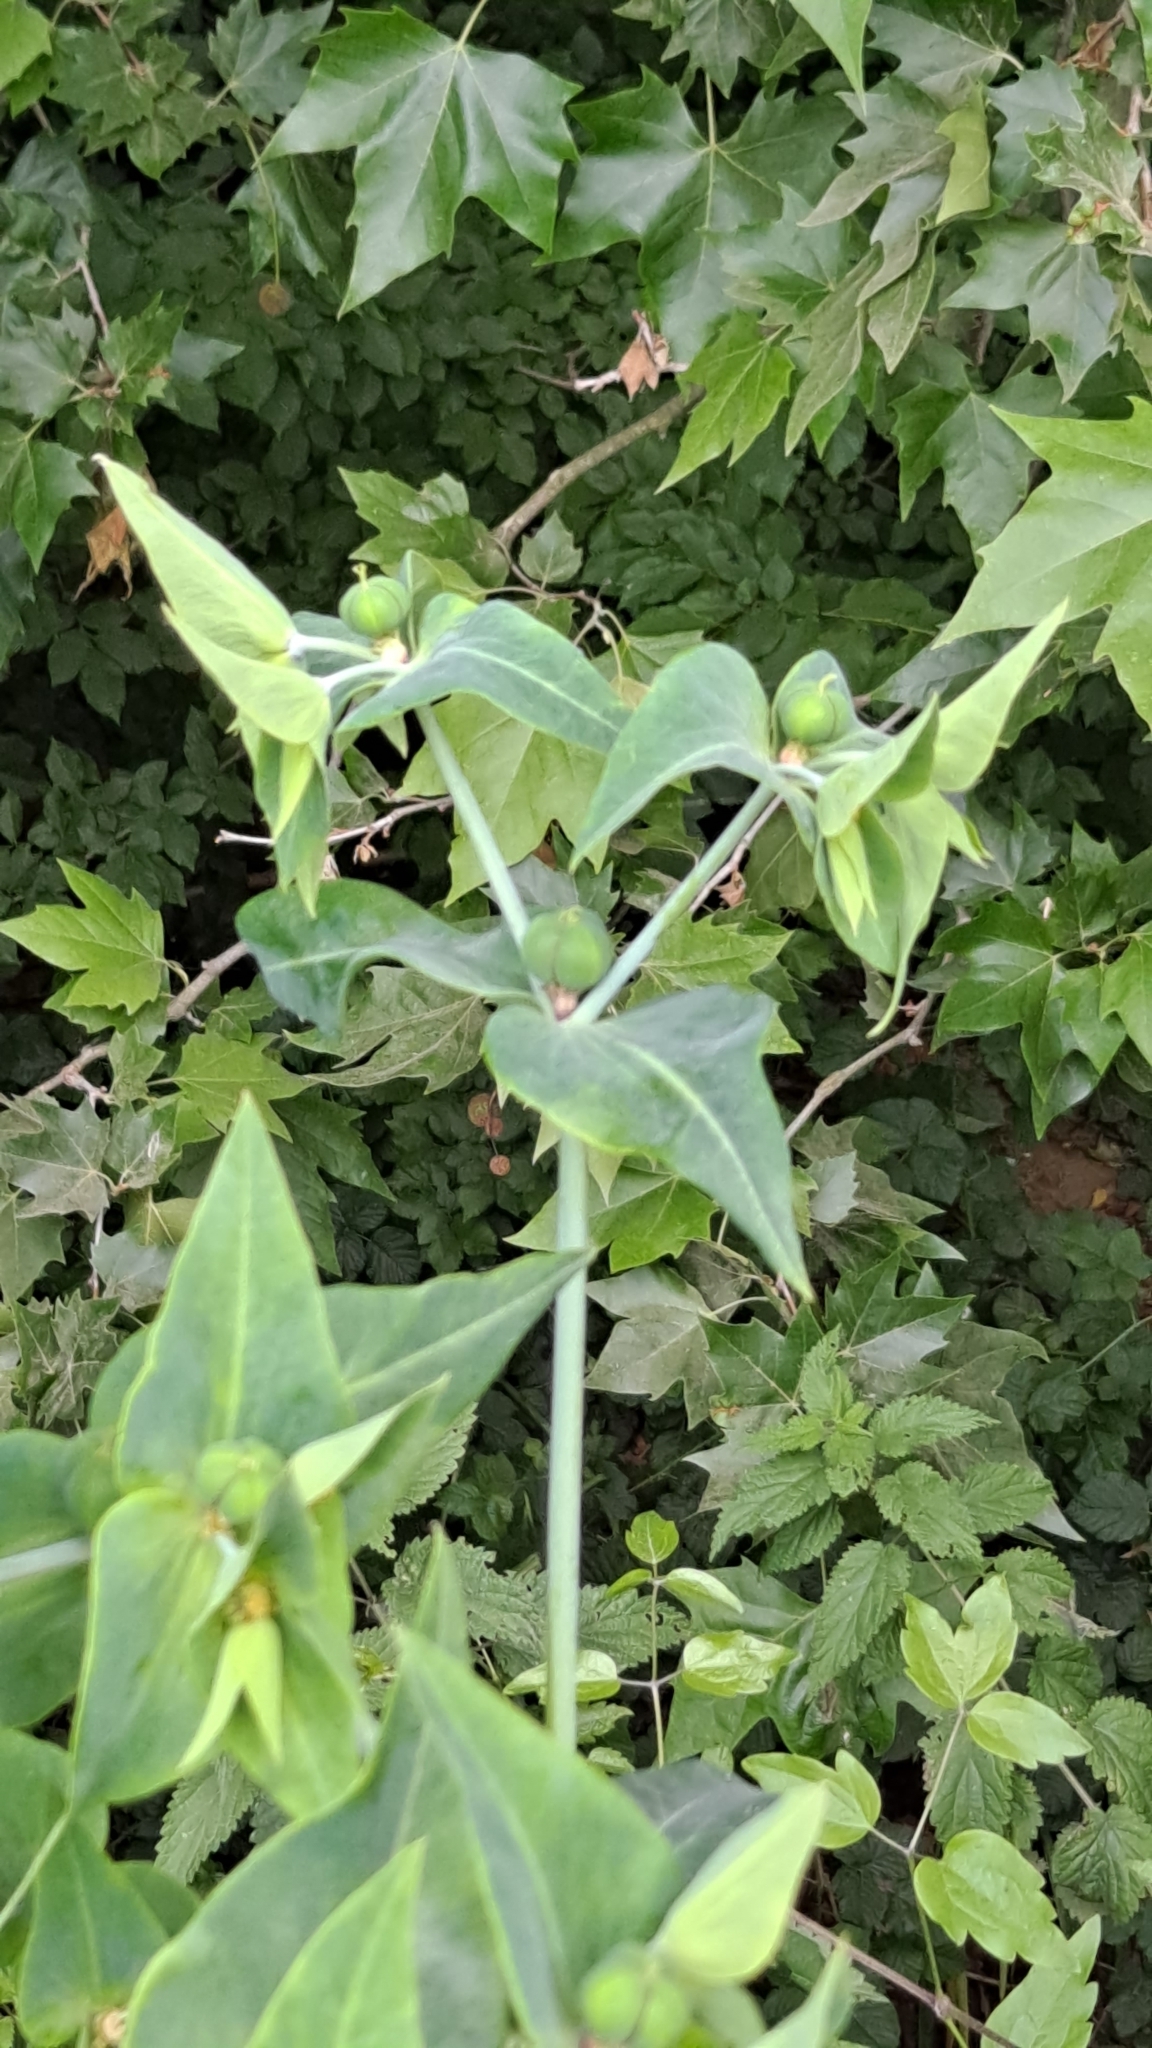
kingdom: Plantae
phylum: Tracheophyta
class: Magnoliopsida
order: Malpighiales
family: Euphorbiaceae
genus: Euphorbia
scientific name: Euphorbia lathyris
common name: Caper spurge
